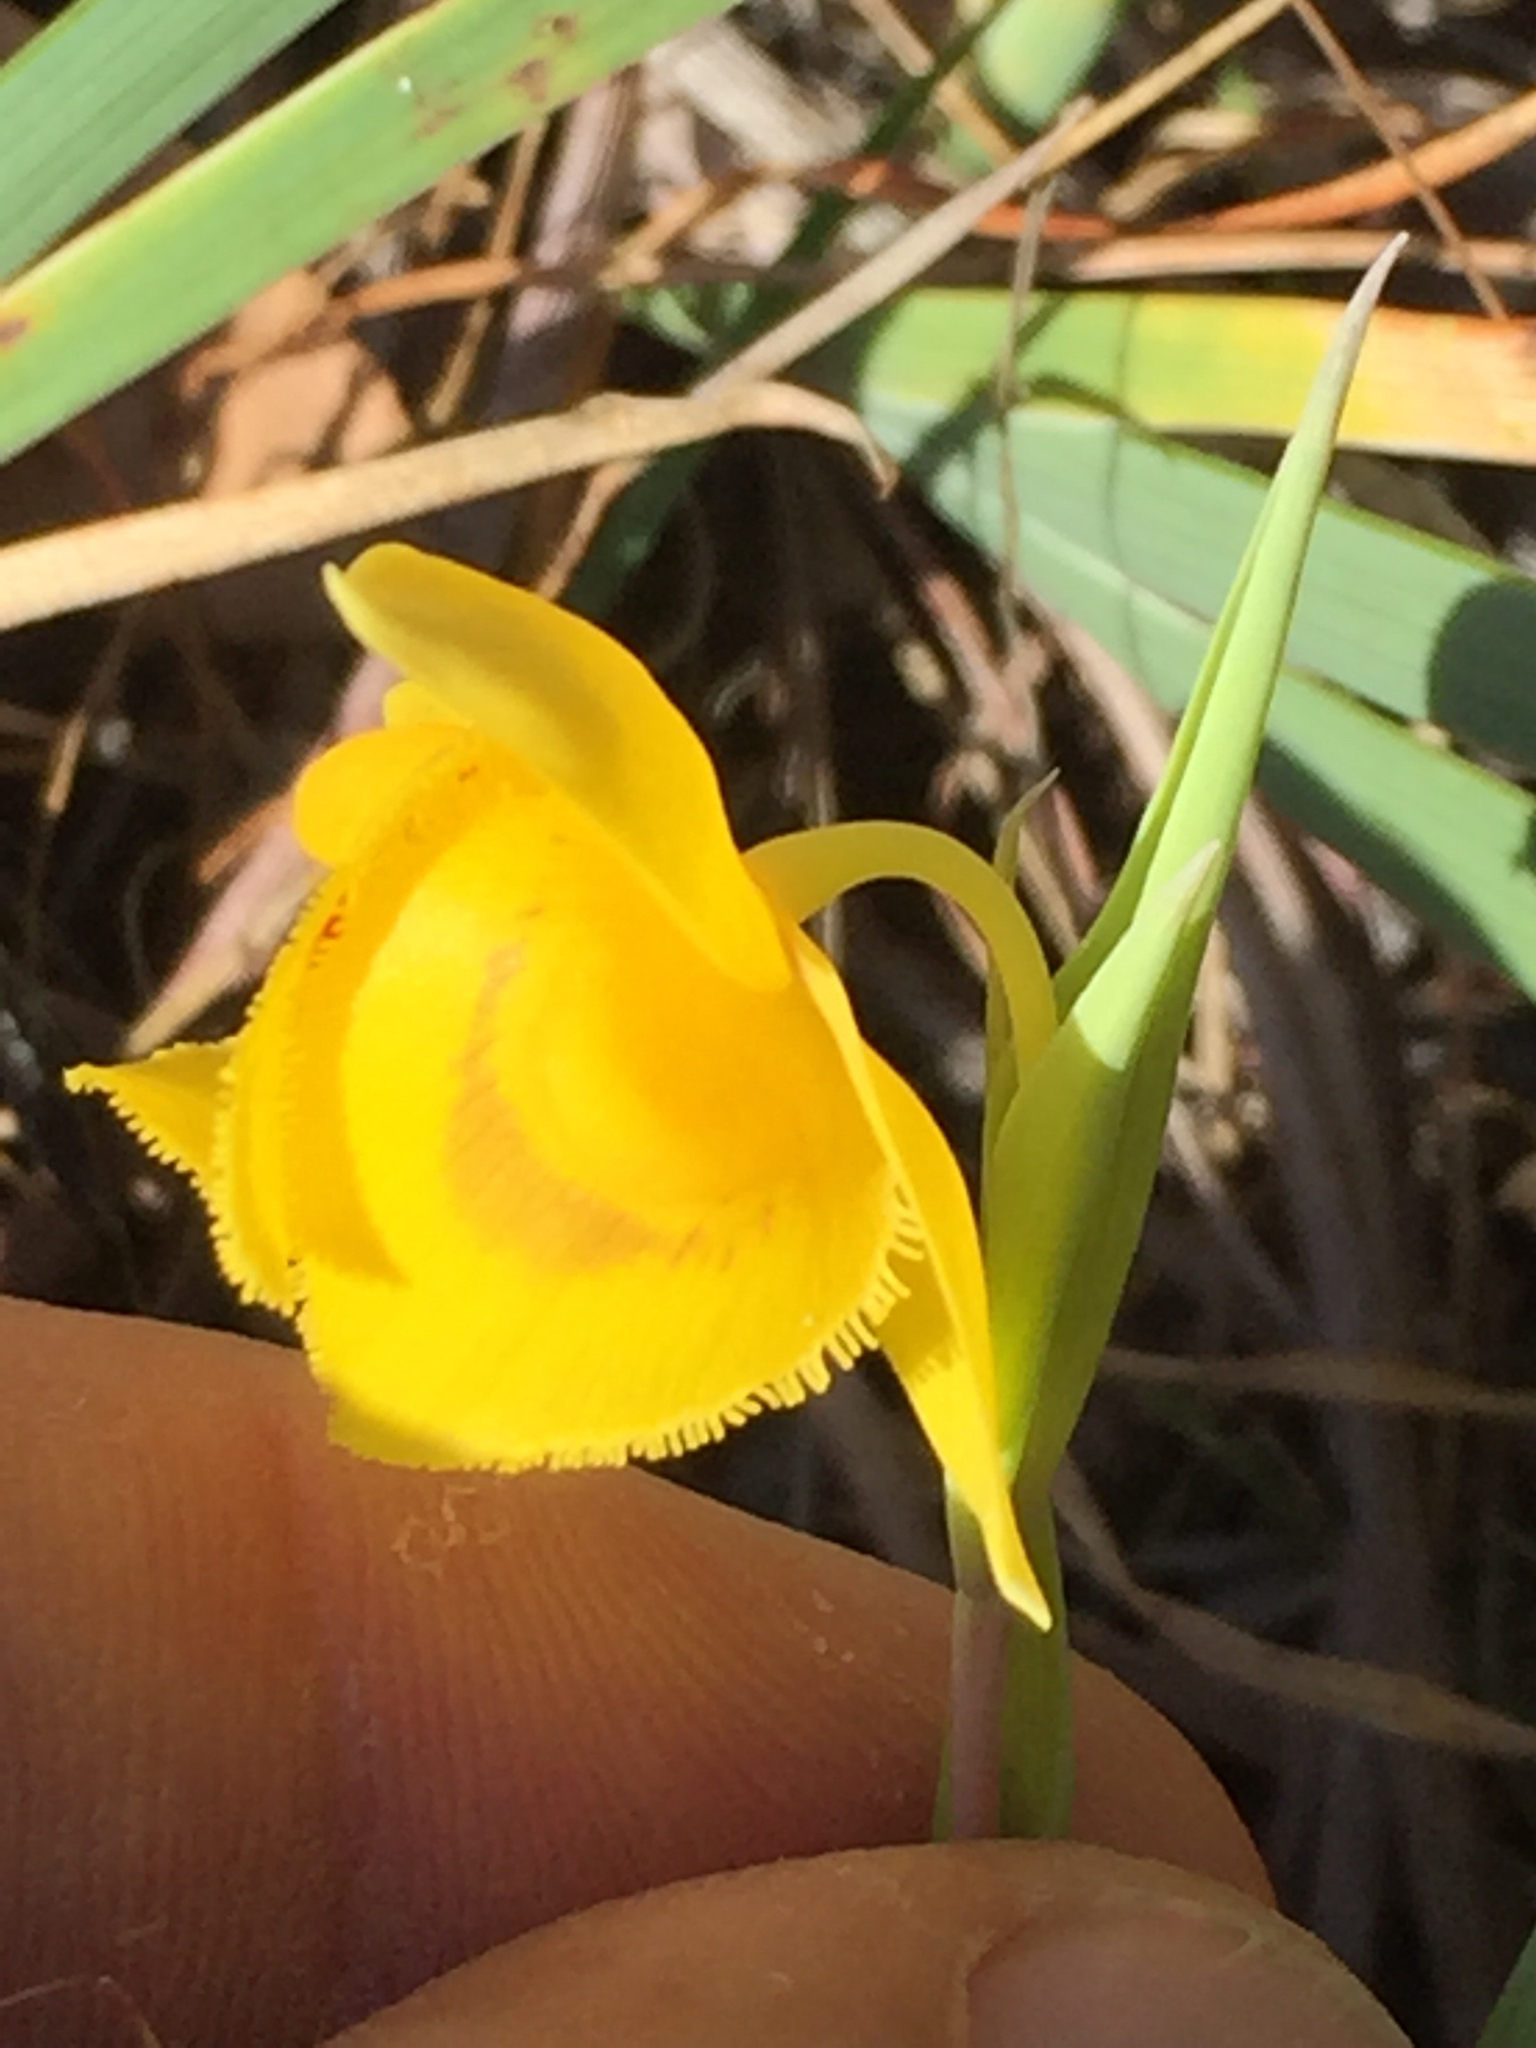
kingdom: Plantae
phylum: Tracheophyta
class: Liliopsida
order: Liliales
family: Liliaceae
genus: Calochortus
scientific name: Calochortus amabilis
